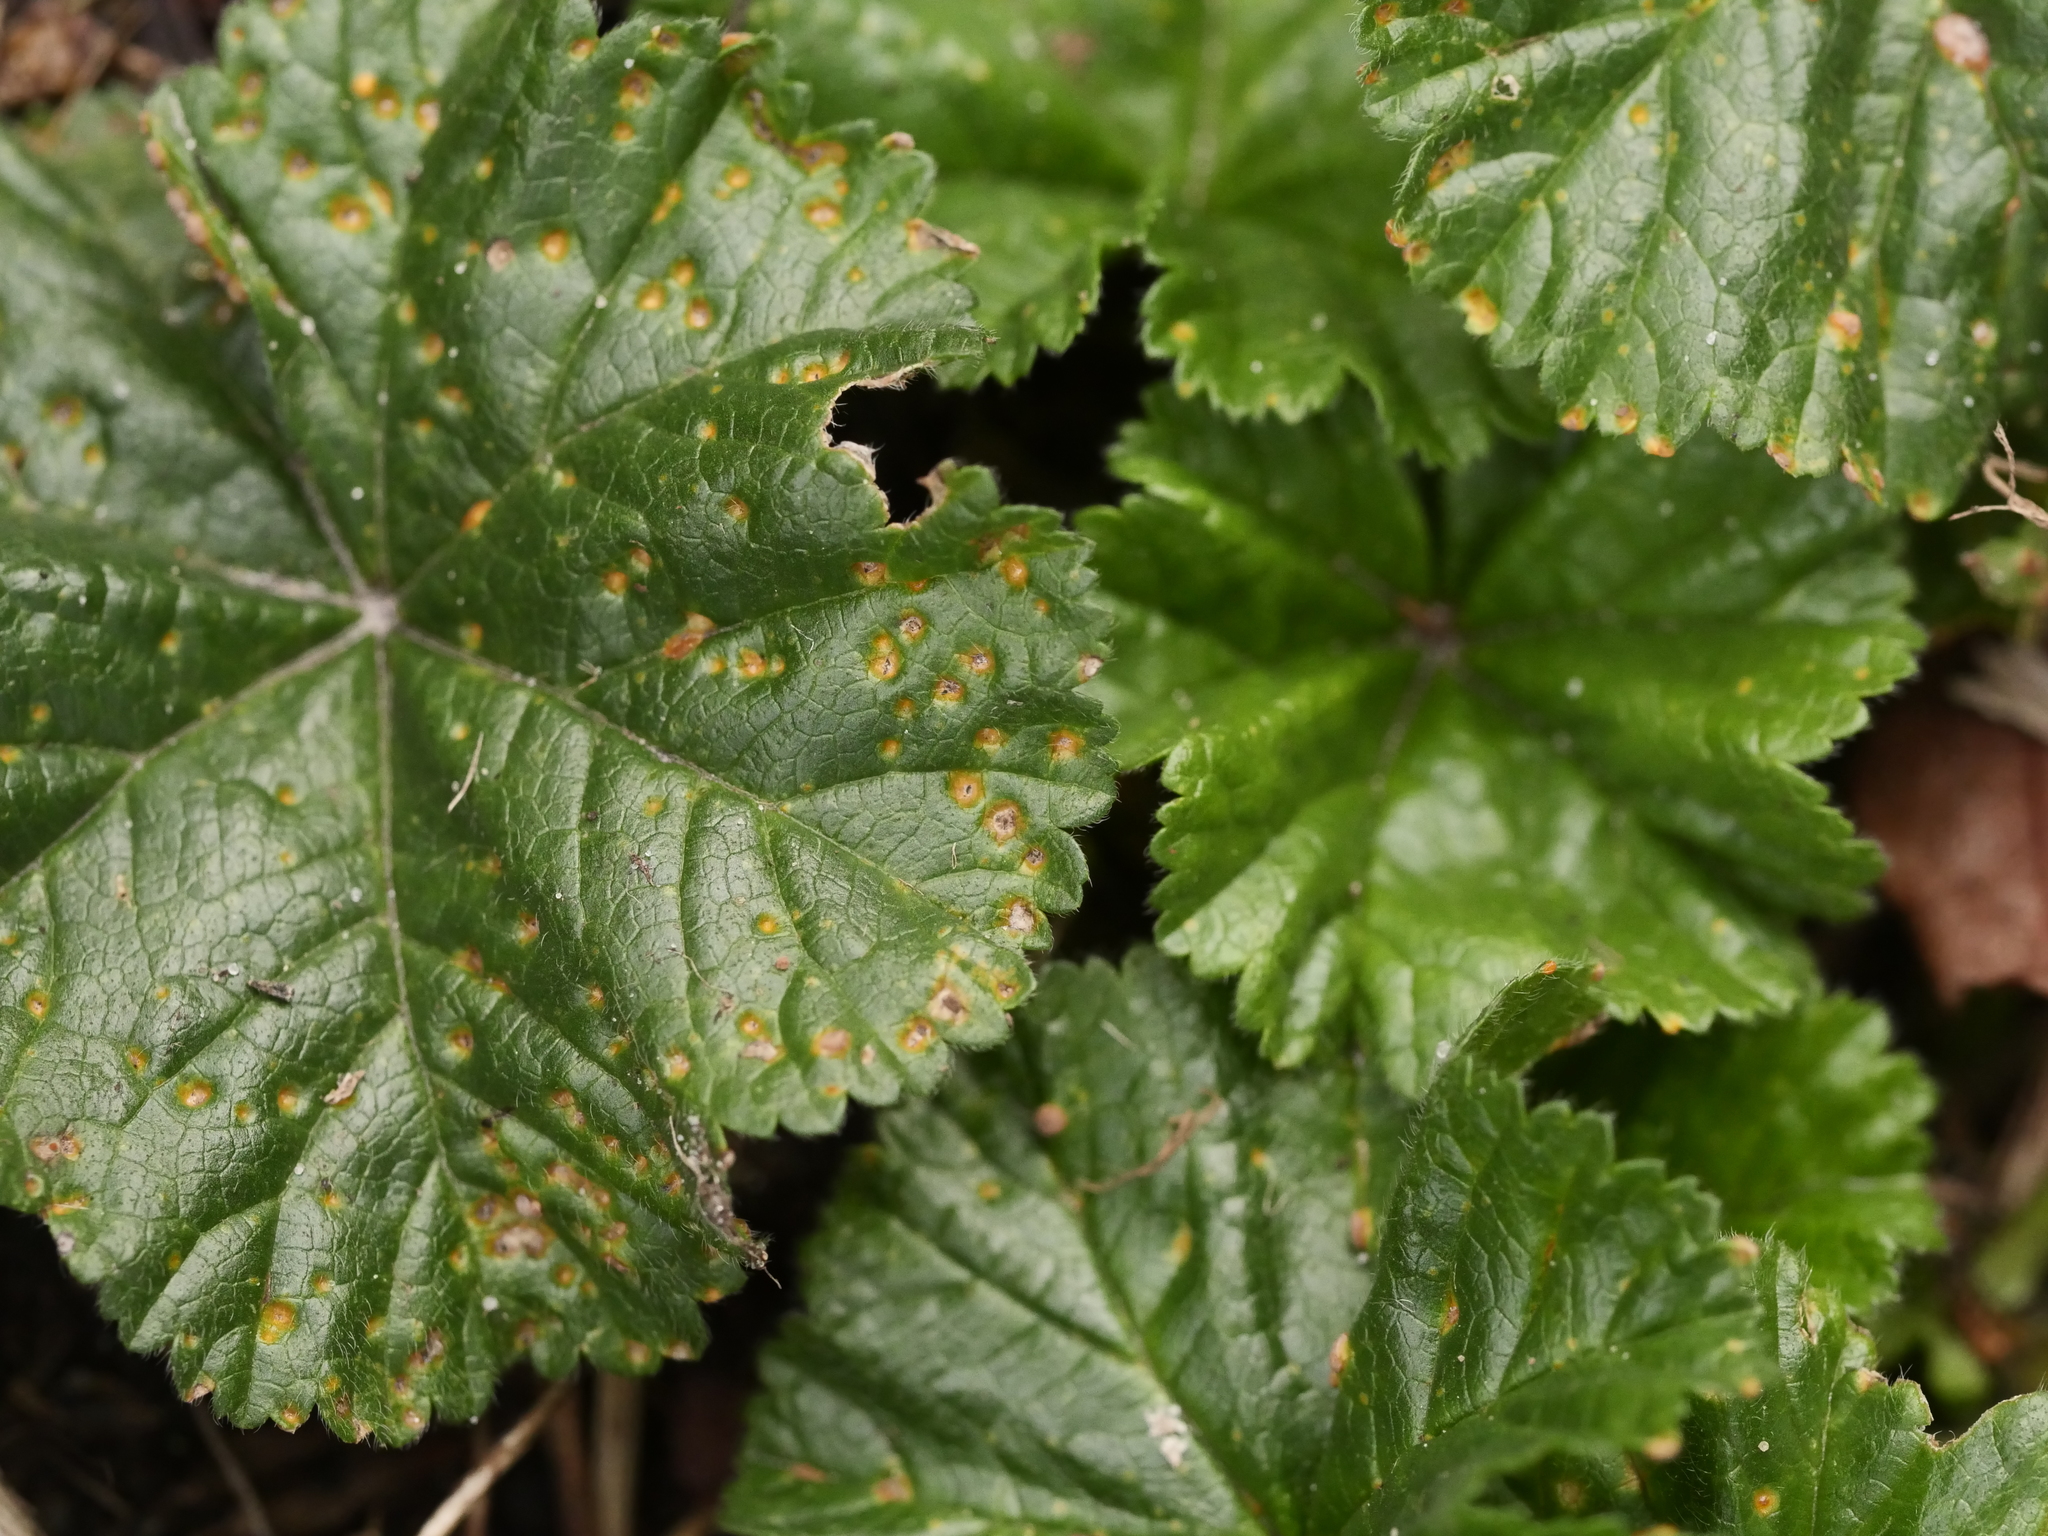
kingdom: Fungi
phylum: Basidiomycota
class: Pucciniomycetes
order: Pucciniales
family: Pucciniaceae
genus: Puccinia
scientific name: Puccinia malvacearum
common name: Hollyhock rust
